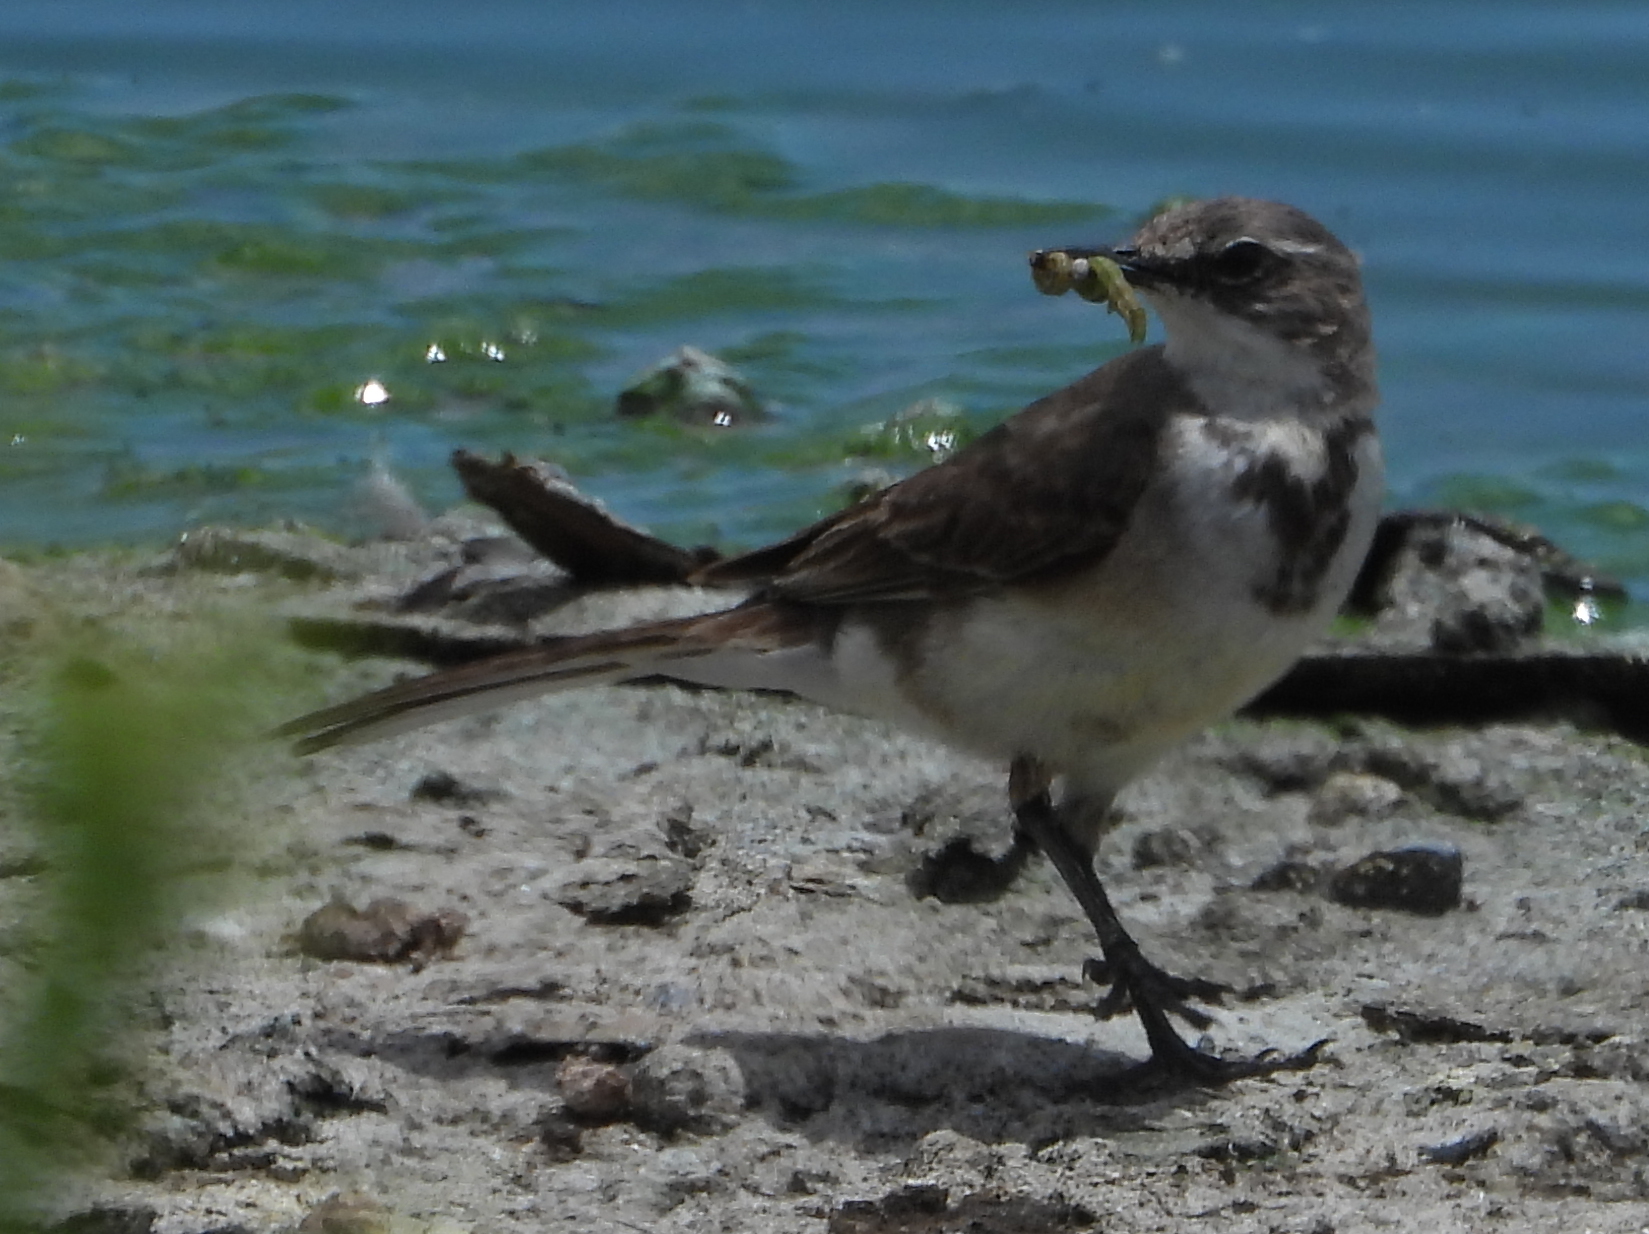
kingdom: Animalia
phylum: Chordata
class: Aves
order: Passeriformes
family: Motacillidae
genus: Motacilla
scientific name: Motacilla capensis
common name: Cape wagtail
